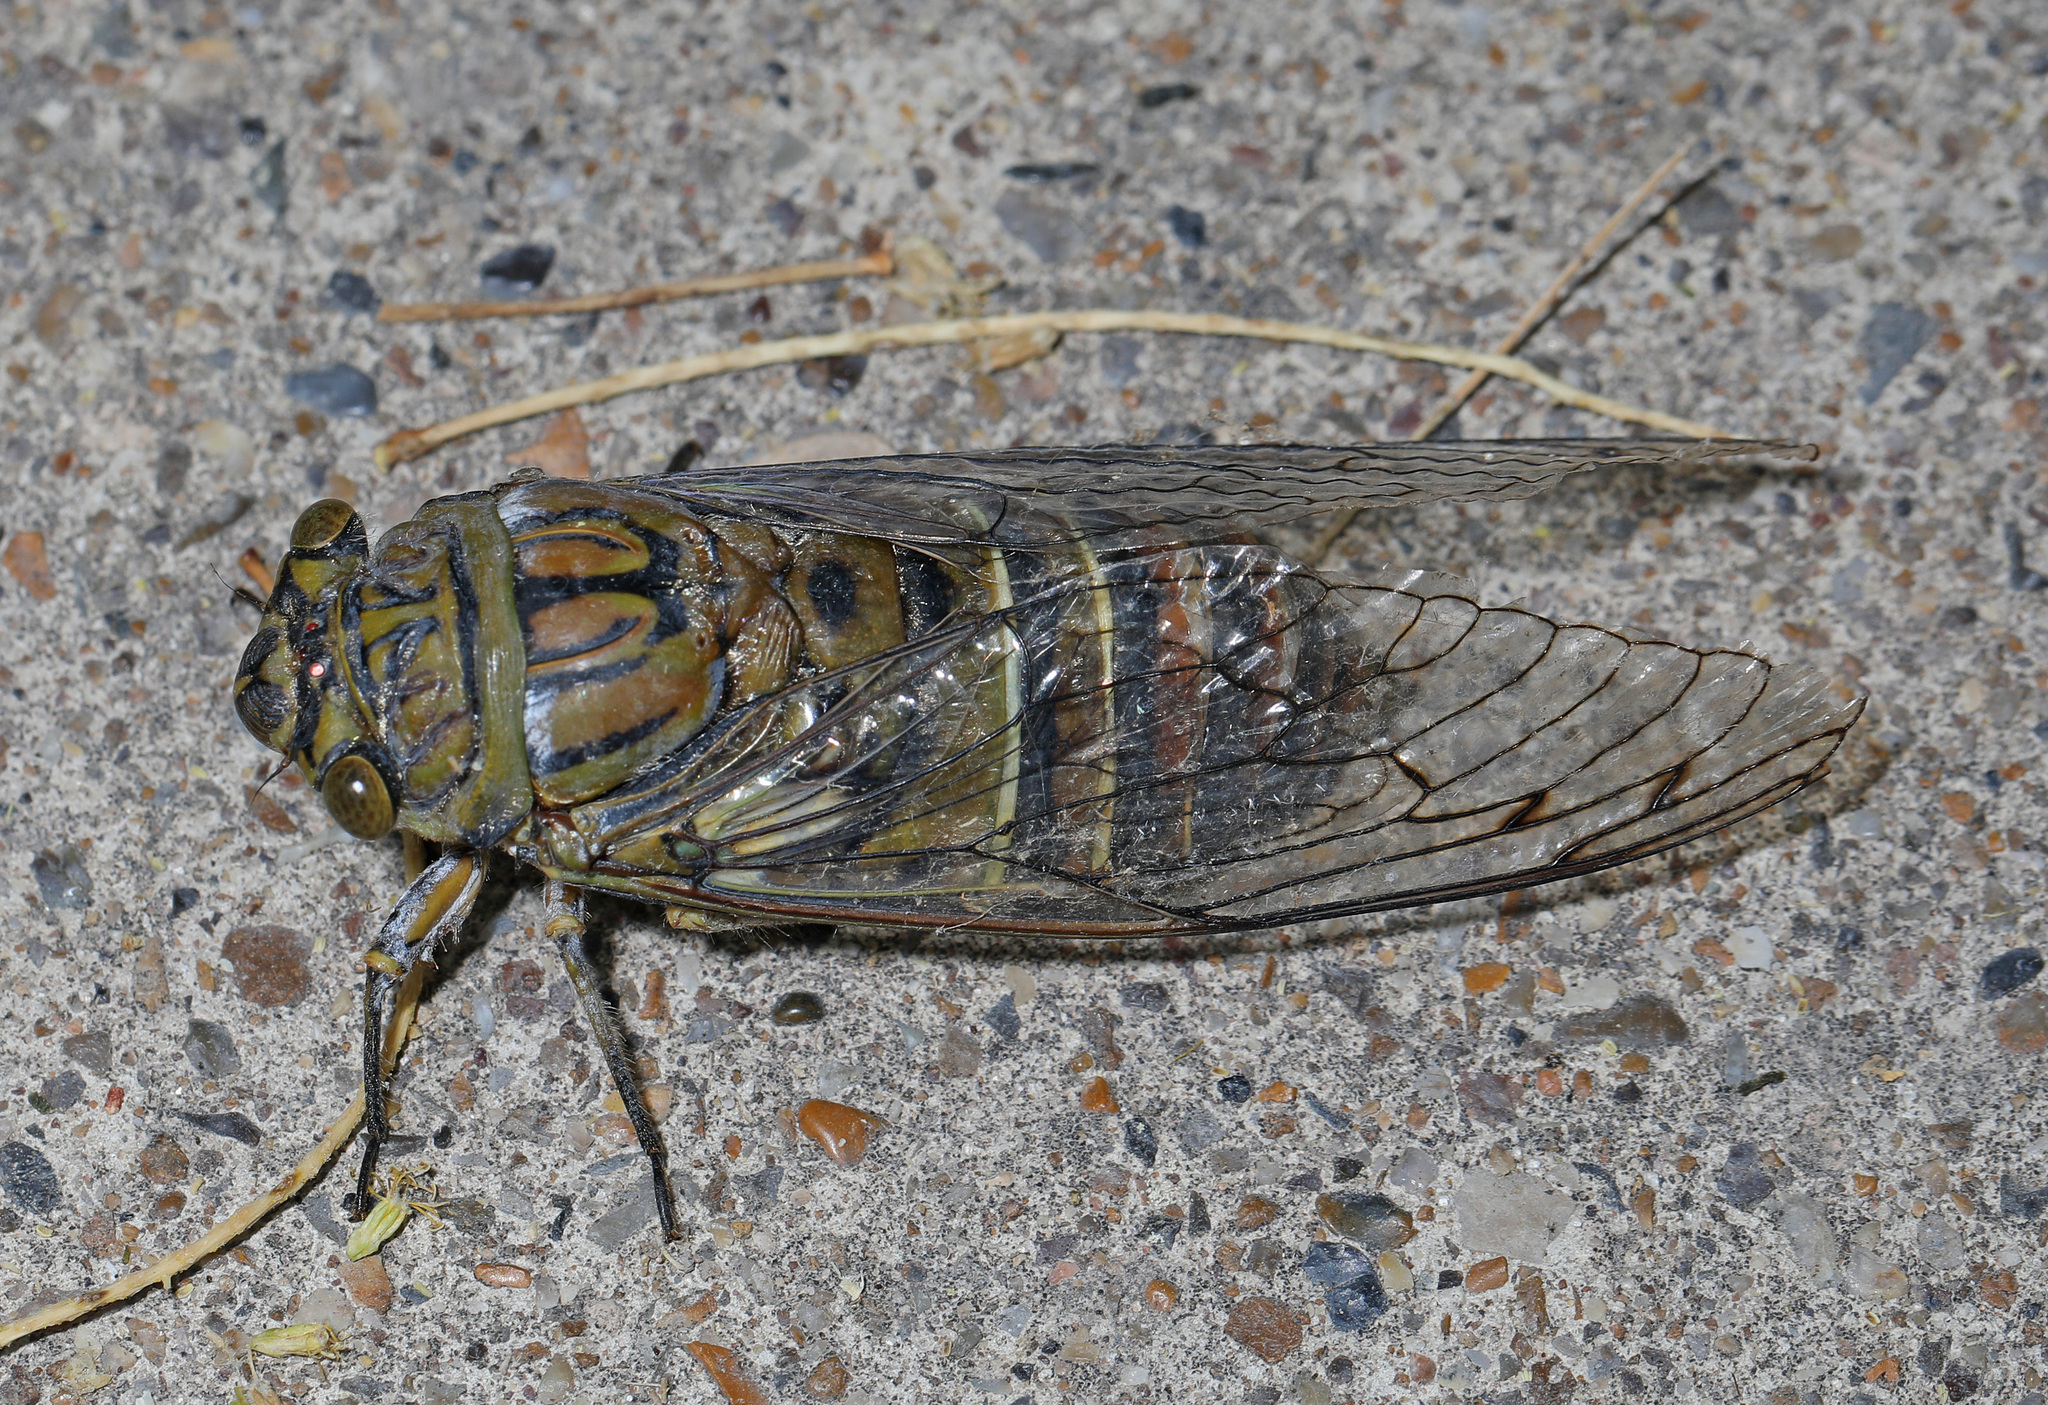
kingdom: Animalia
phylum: Arthropoda
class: Insecta
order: Hemiptera
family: Cicadidae
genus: Quesada
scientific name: Quesada gigas
